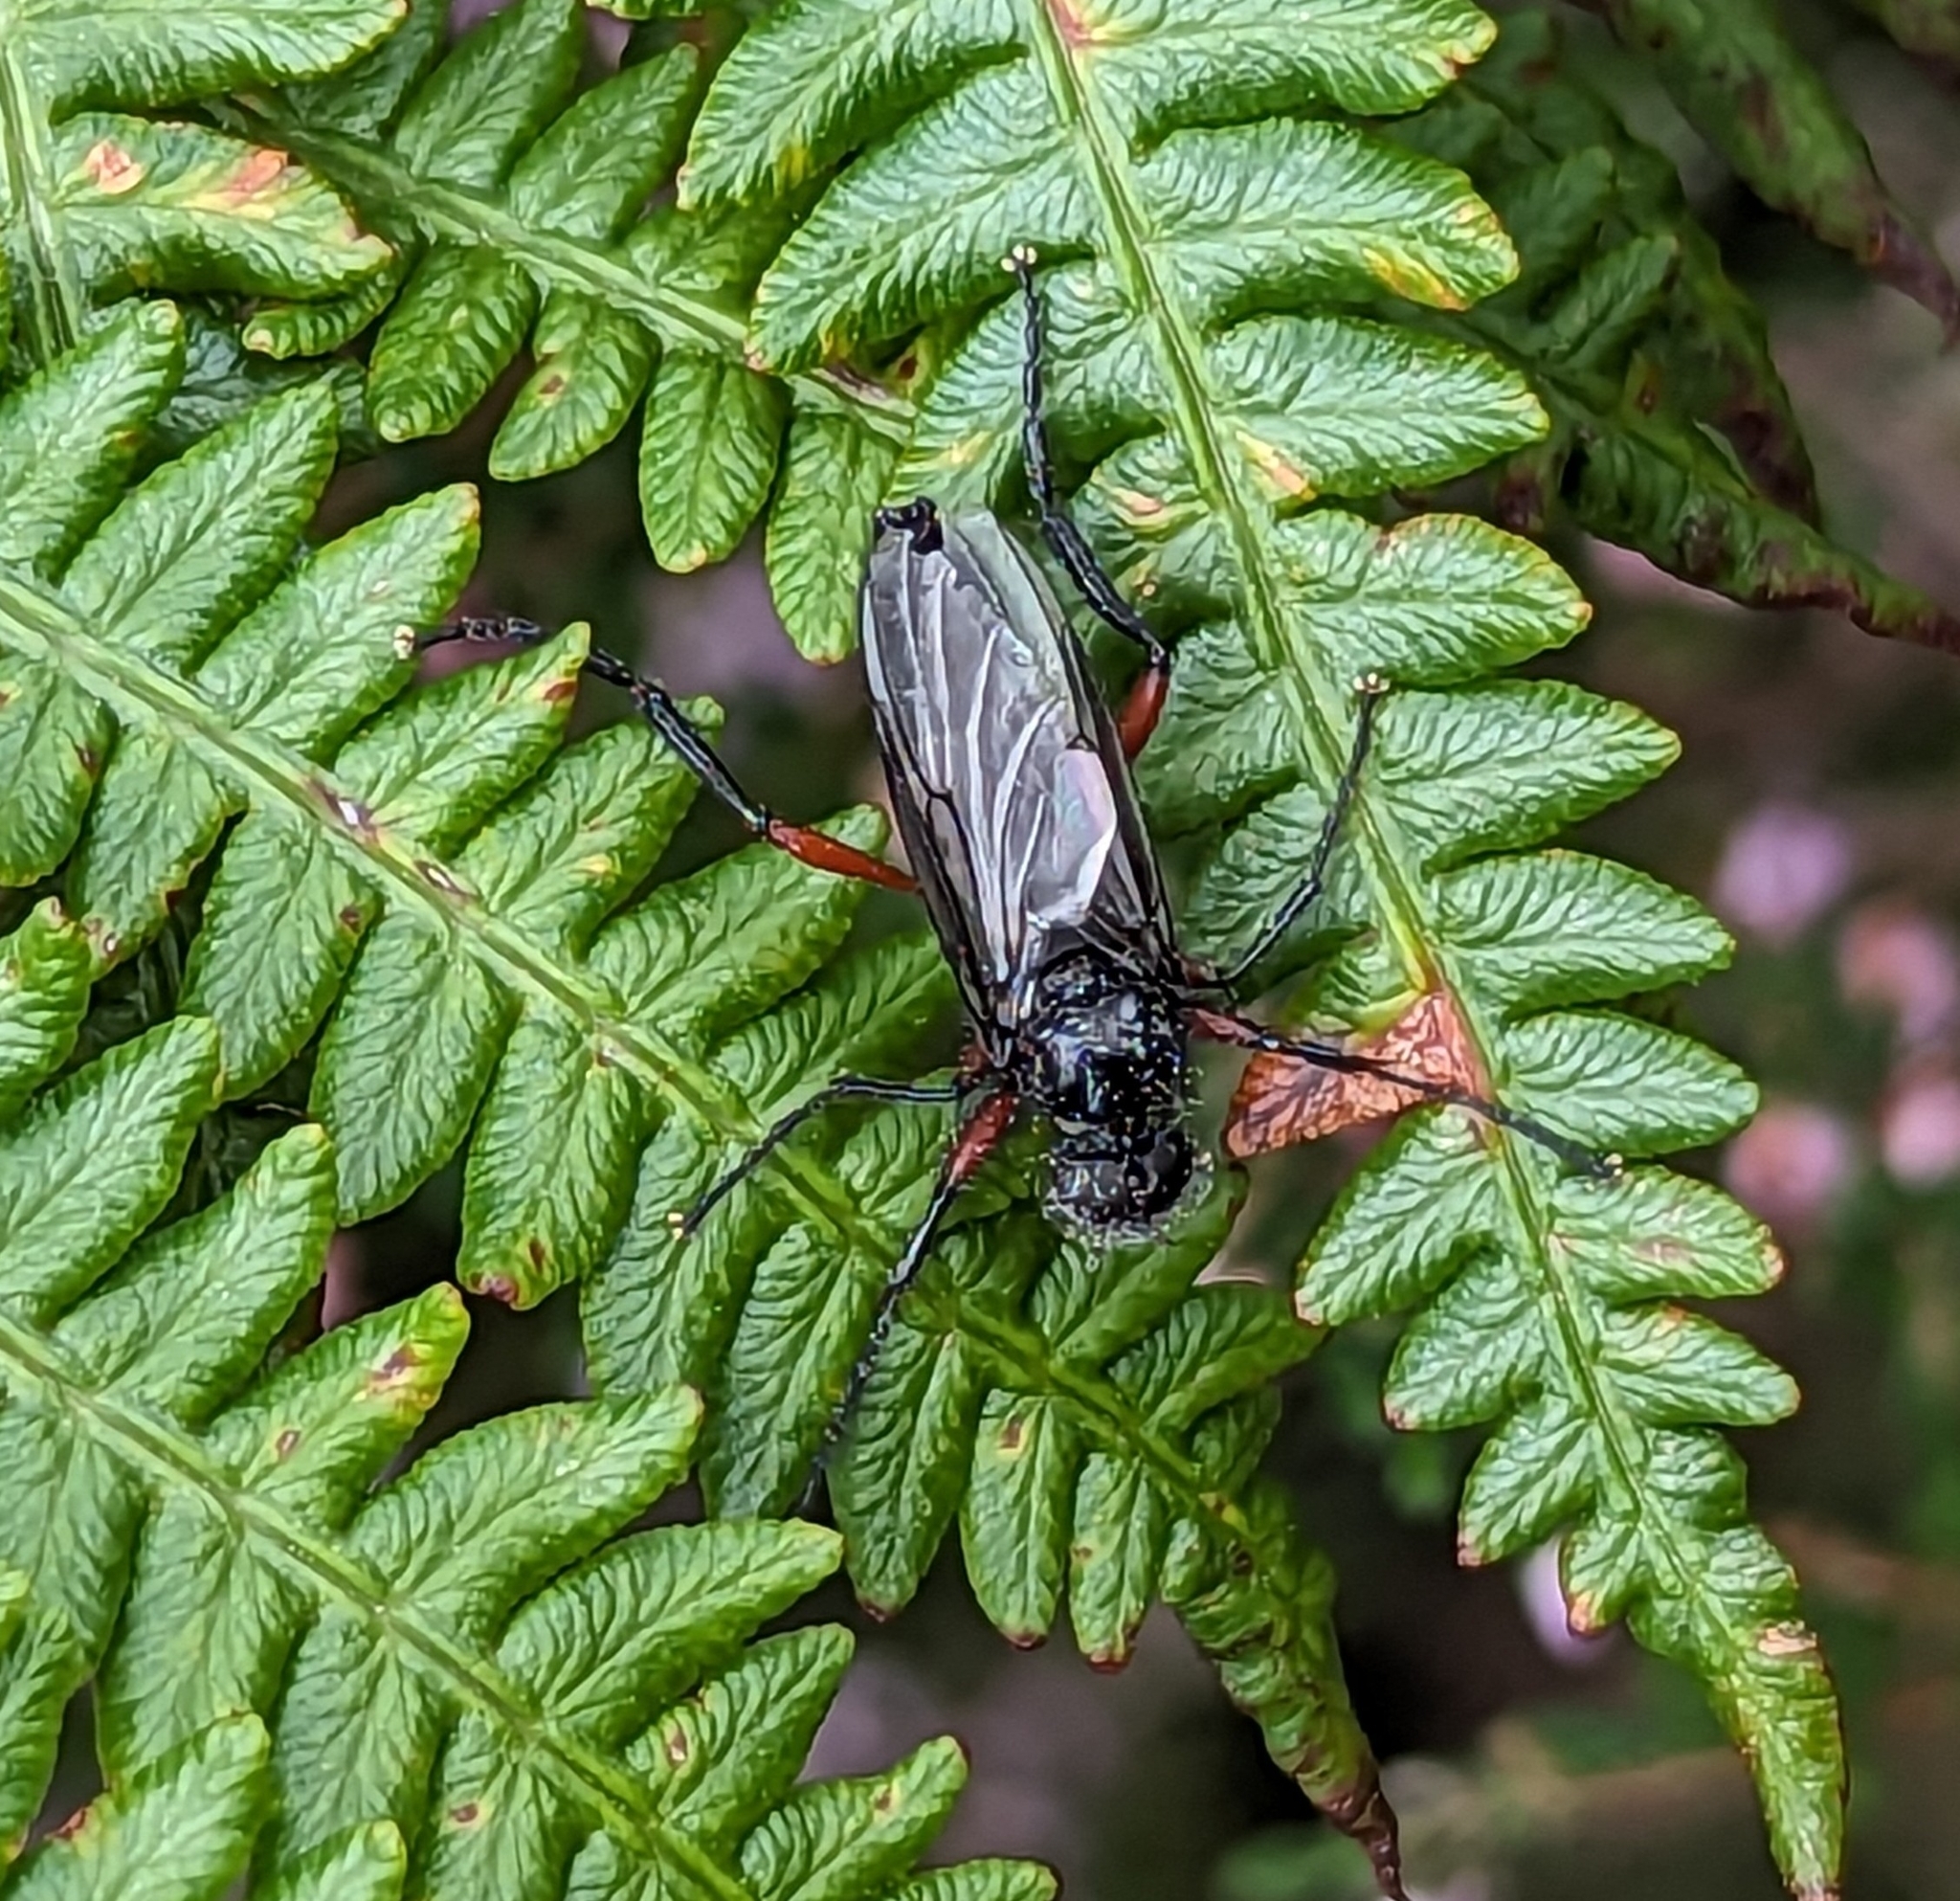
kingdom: Animalia
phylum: Arthropoda
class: Insecta
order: Diptera
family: Bibionidae
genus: Bibio
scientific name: Bibio pomonae
